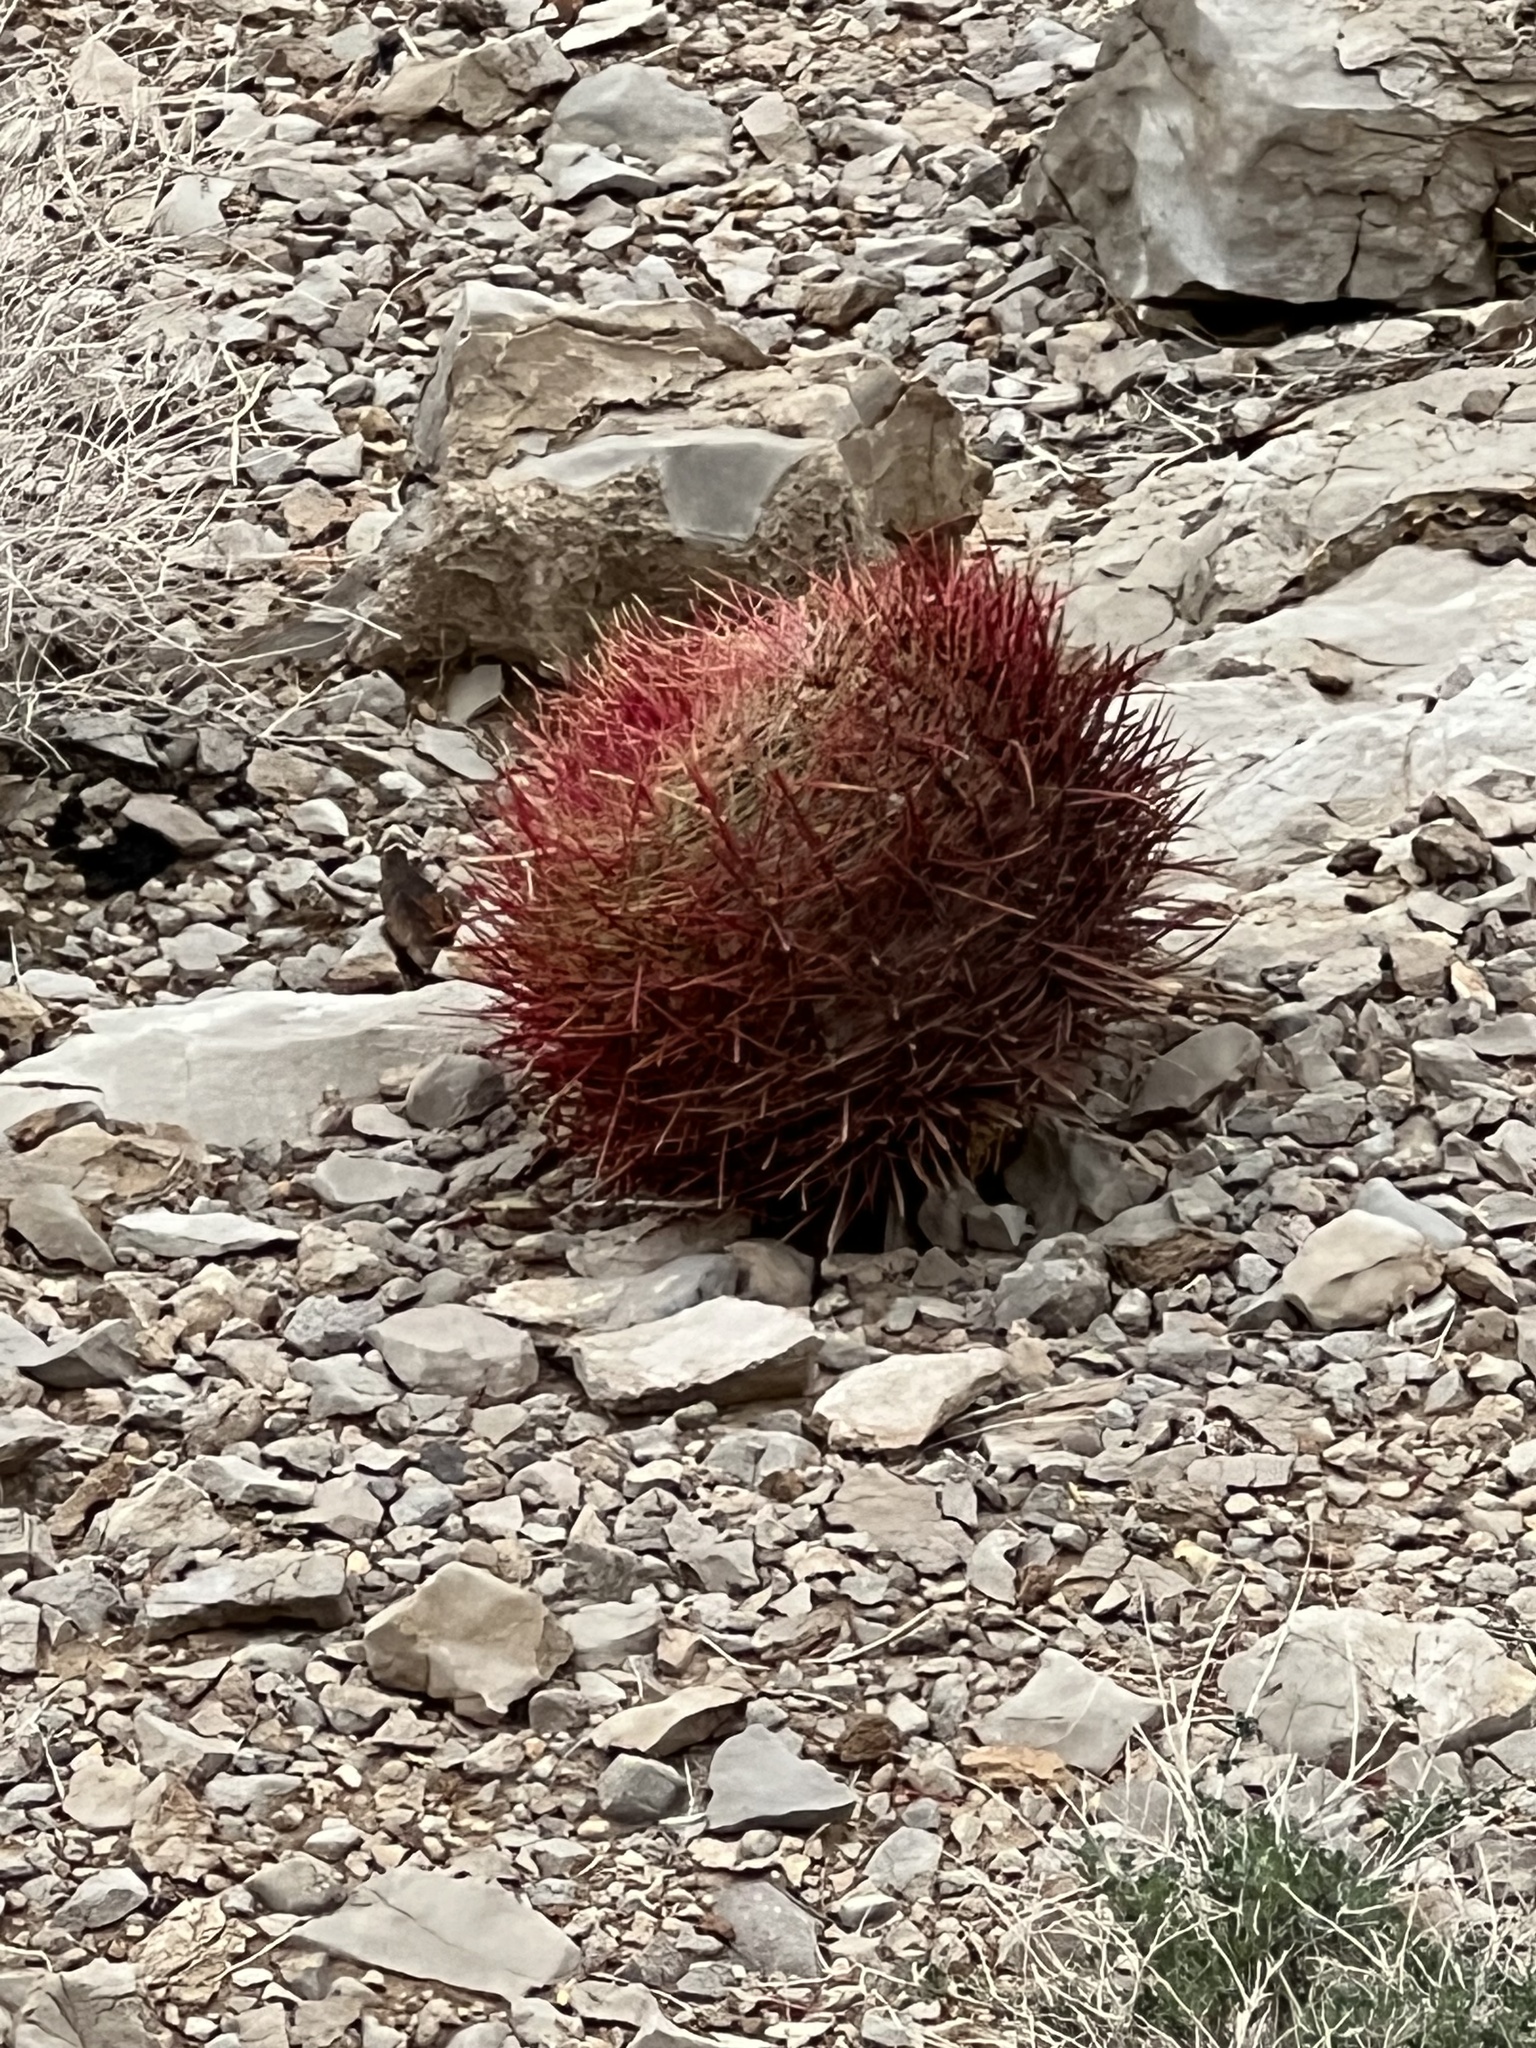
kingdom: Plantae
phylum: Tracheophyta
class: Magnoliopsida
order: Caryophyllales
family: Cactaceae
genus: Ferocactus
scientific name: Ferocactus cylindraceus
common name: California barrel cactus
